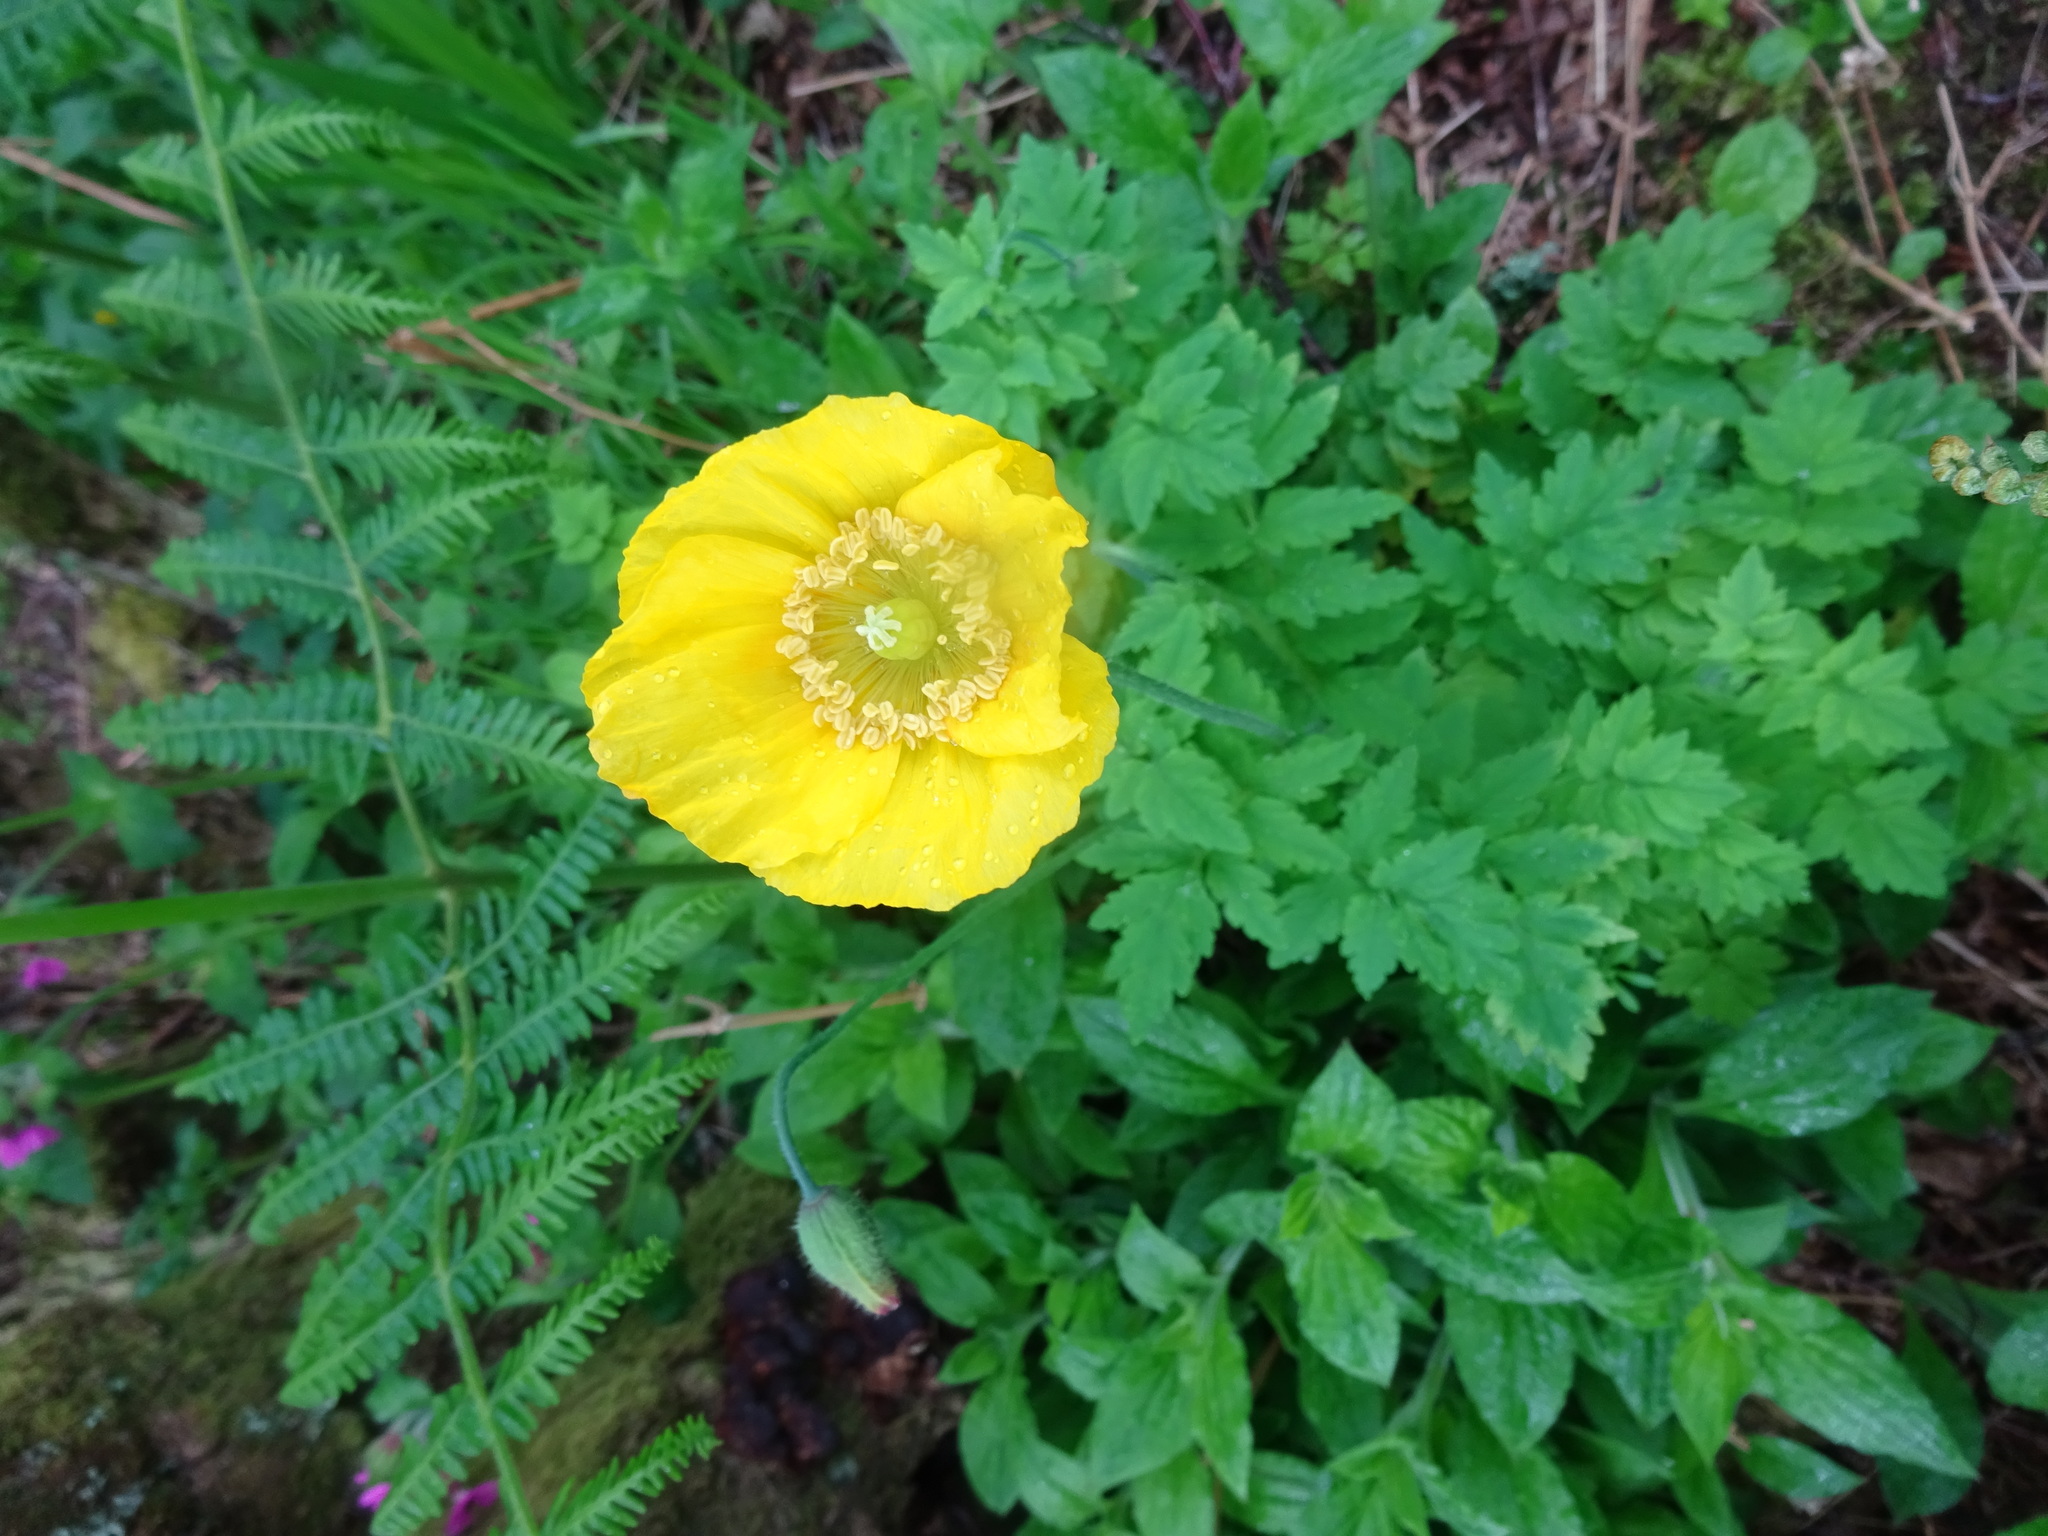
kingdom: Plantae
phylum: Tracheophyta
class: Magnoliopsida
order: Ranunculales
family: Papaveraceae
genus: Papaver
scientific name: Papaver cambricum
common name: Poppy
